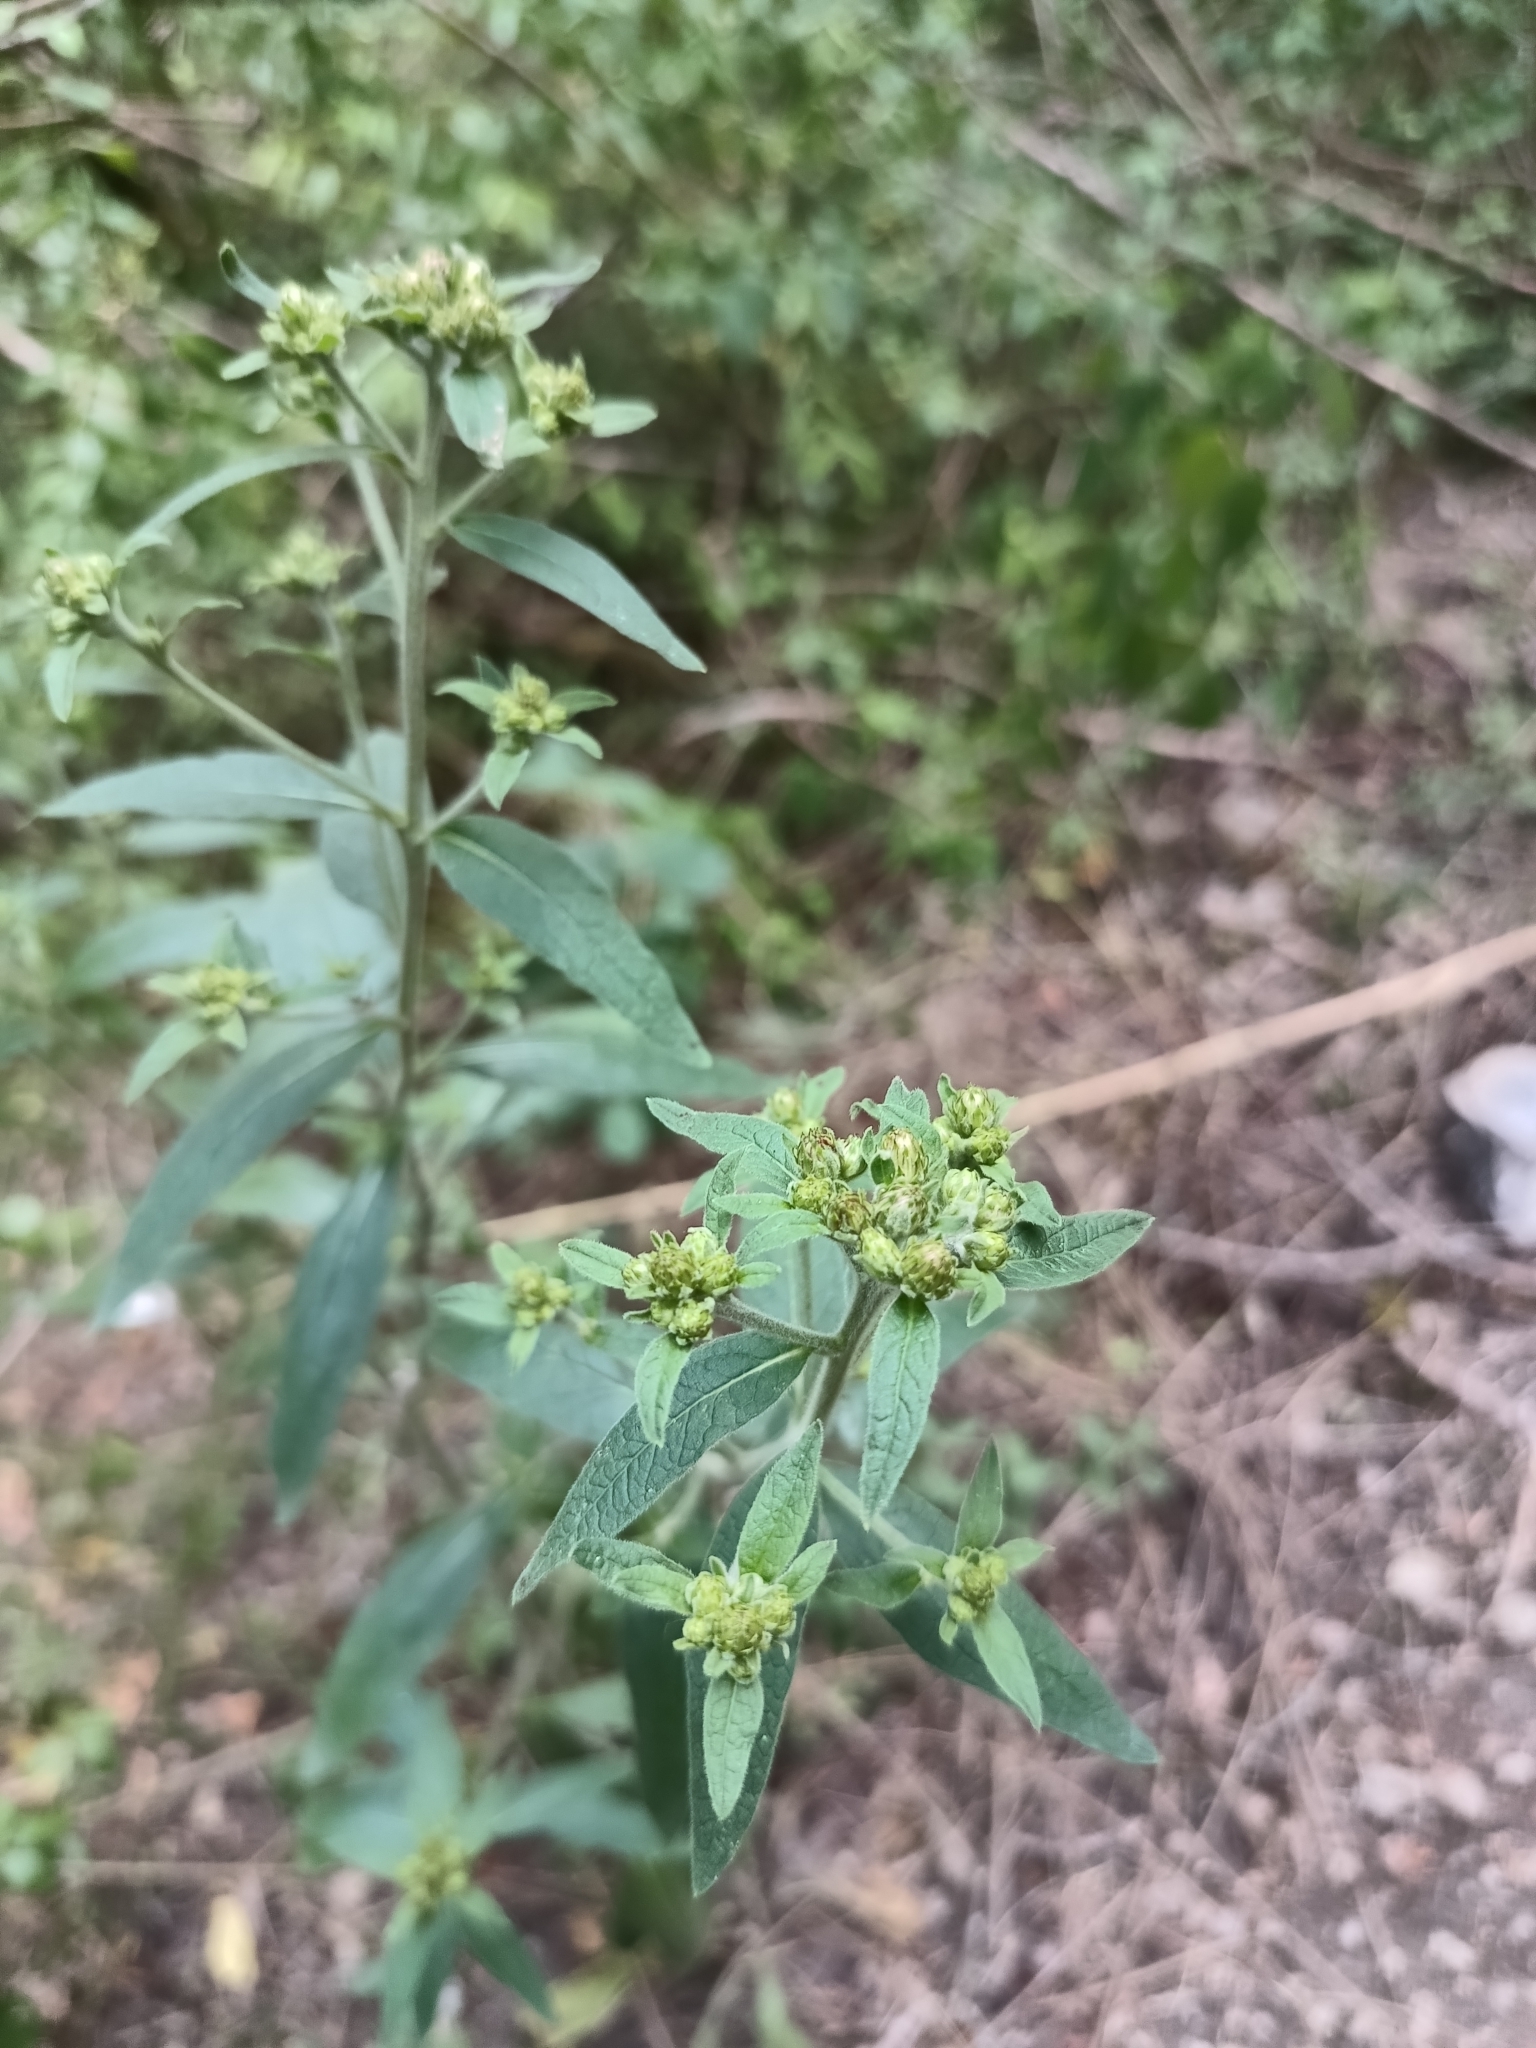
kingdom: Plantae
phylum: Tracheophyta
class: Magnoliopsida
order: Asterales
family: Asteraceae
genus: Pentanema
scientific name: Pentanema squarrosum
